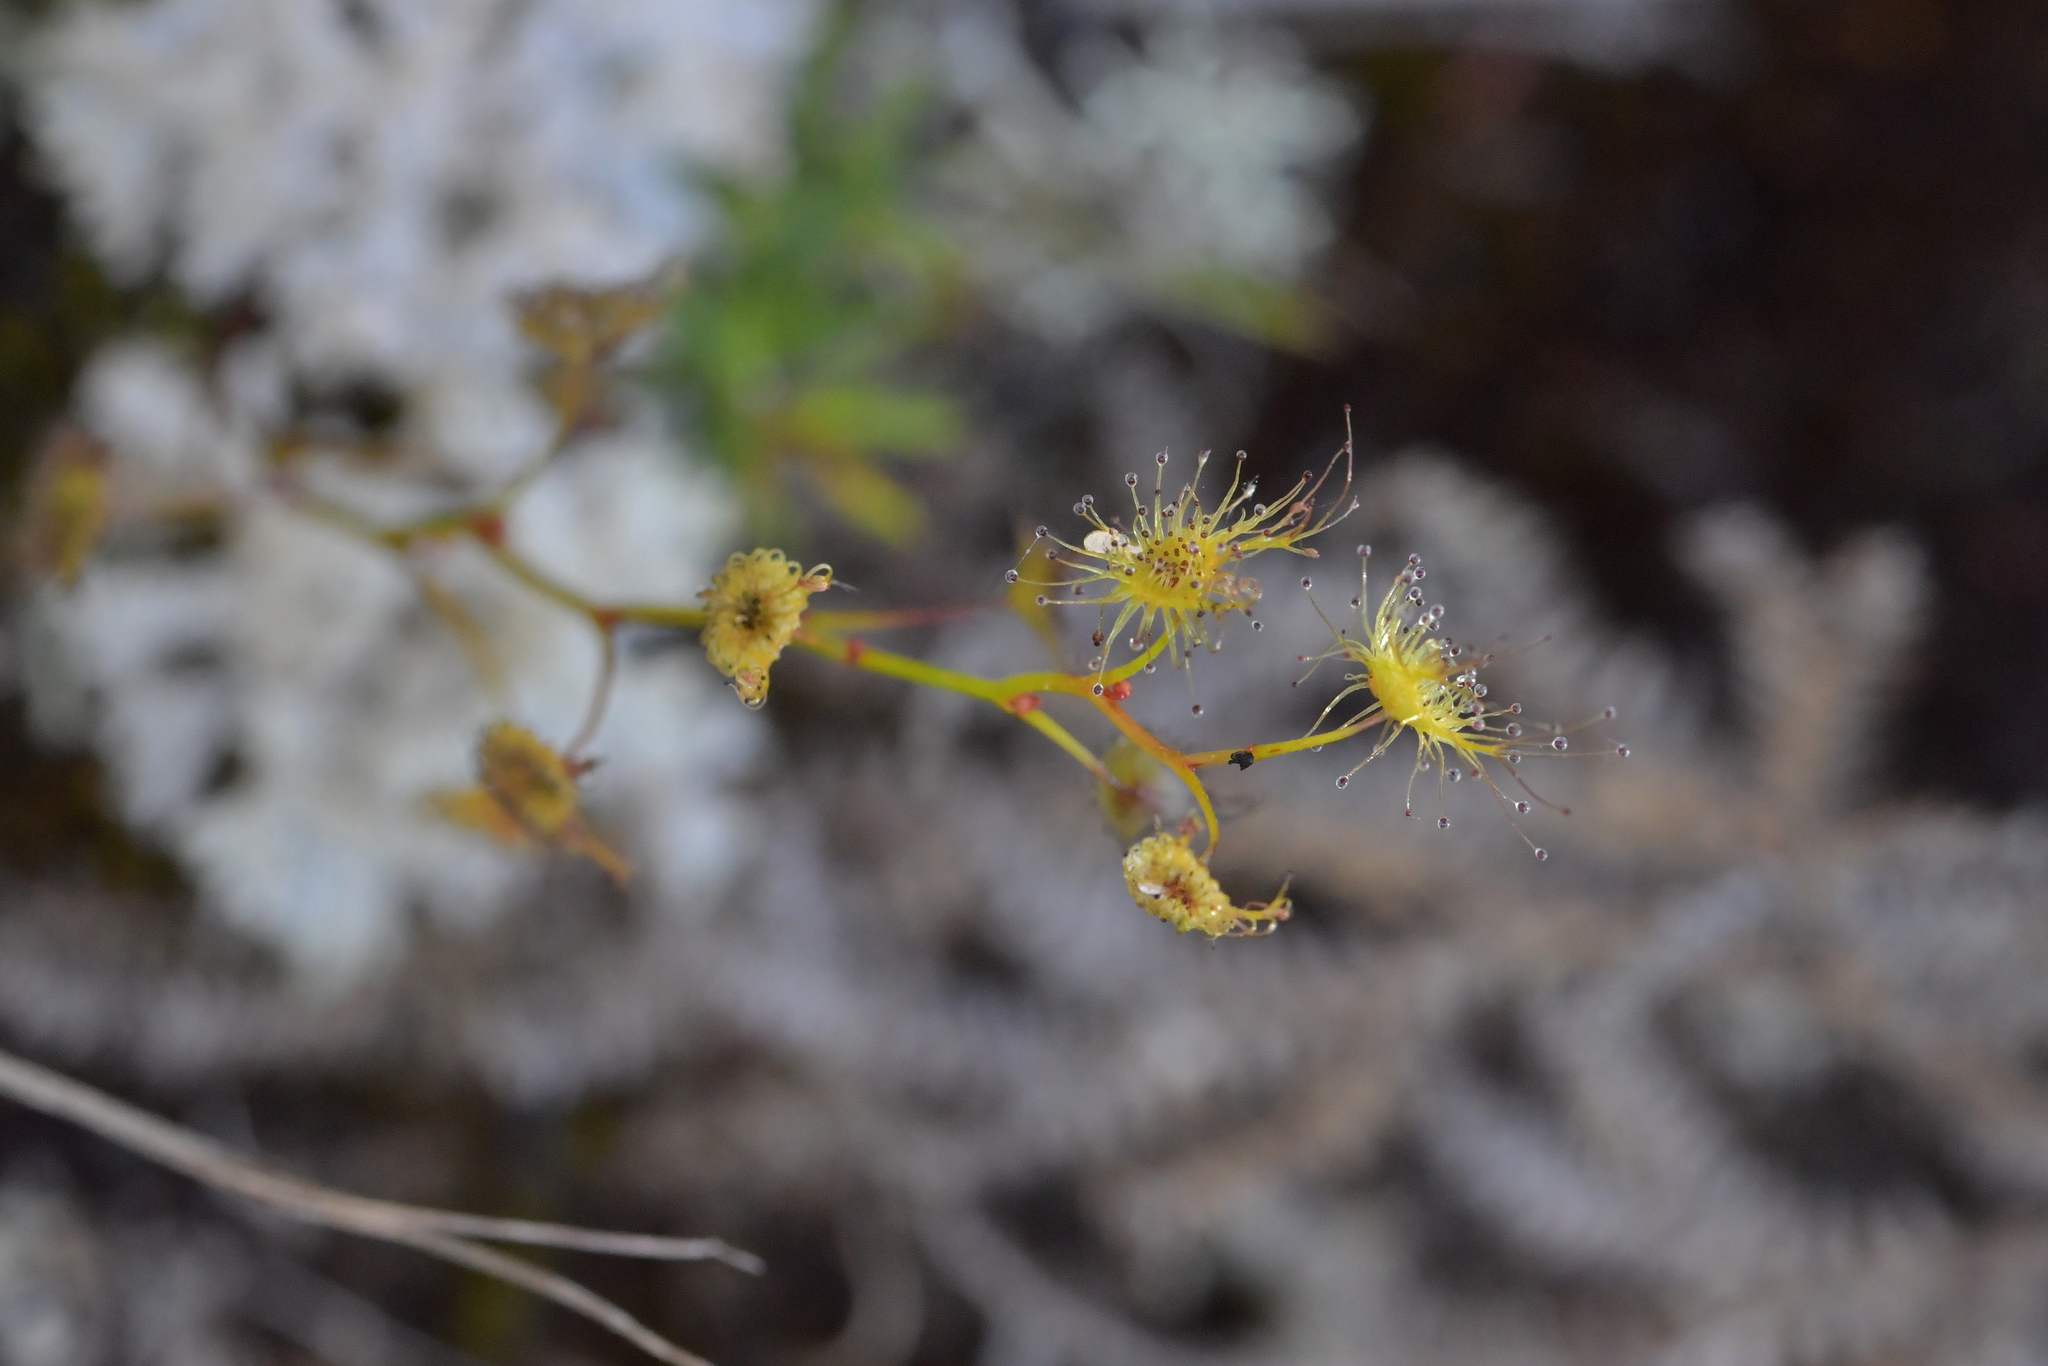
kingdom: Plantae
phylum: Tracheophyta
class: Magnoliopsida
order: Caryophyllales
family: Droseraceae
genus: Drosera
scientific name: Drosera peltata
